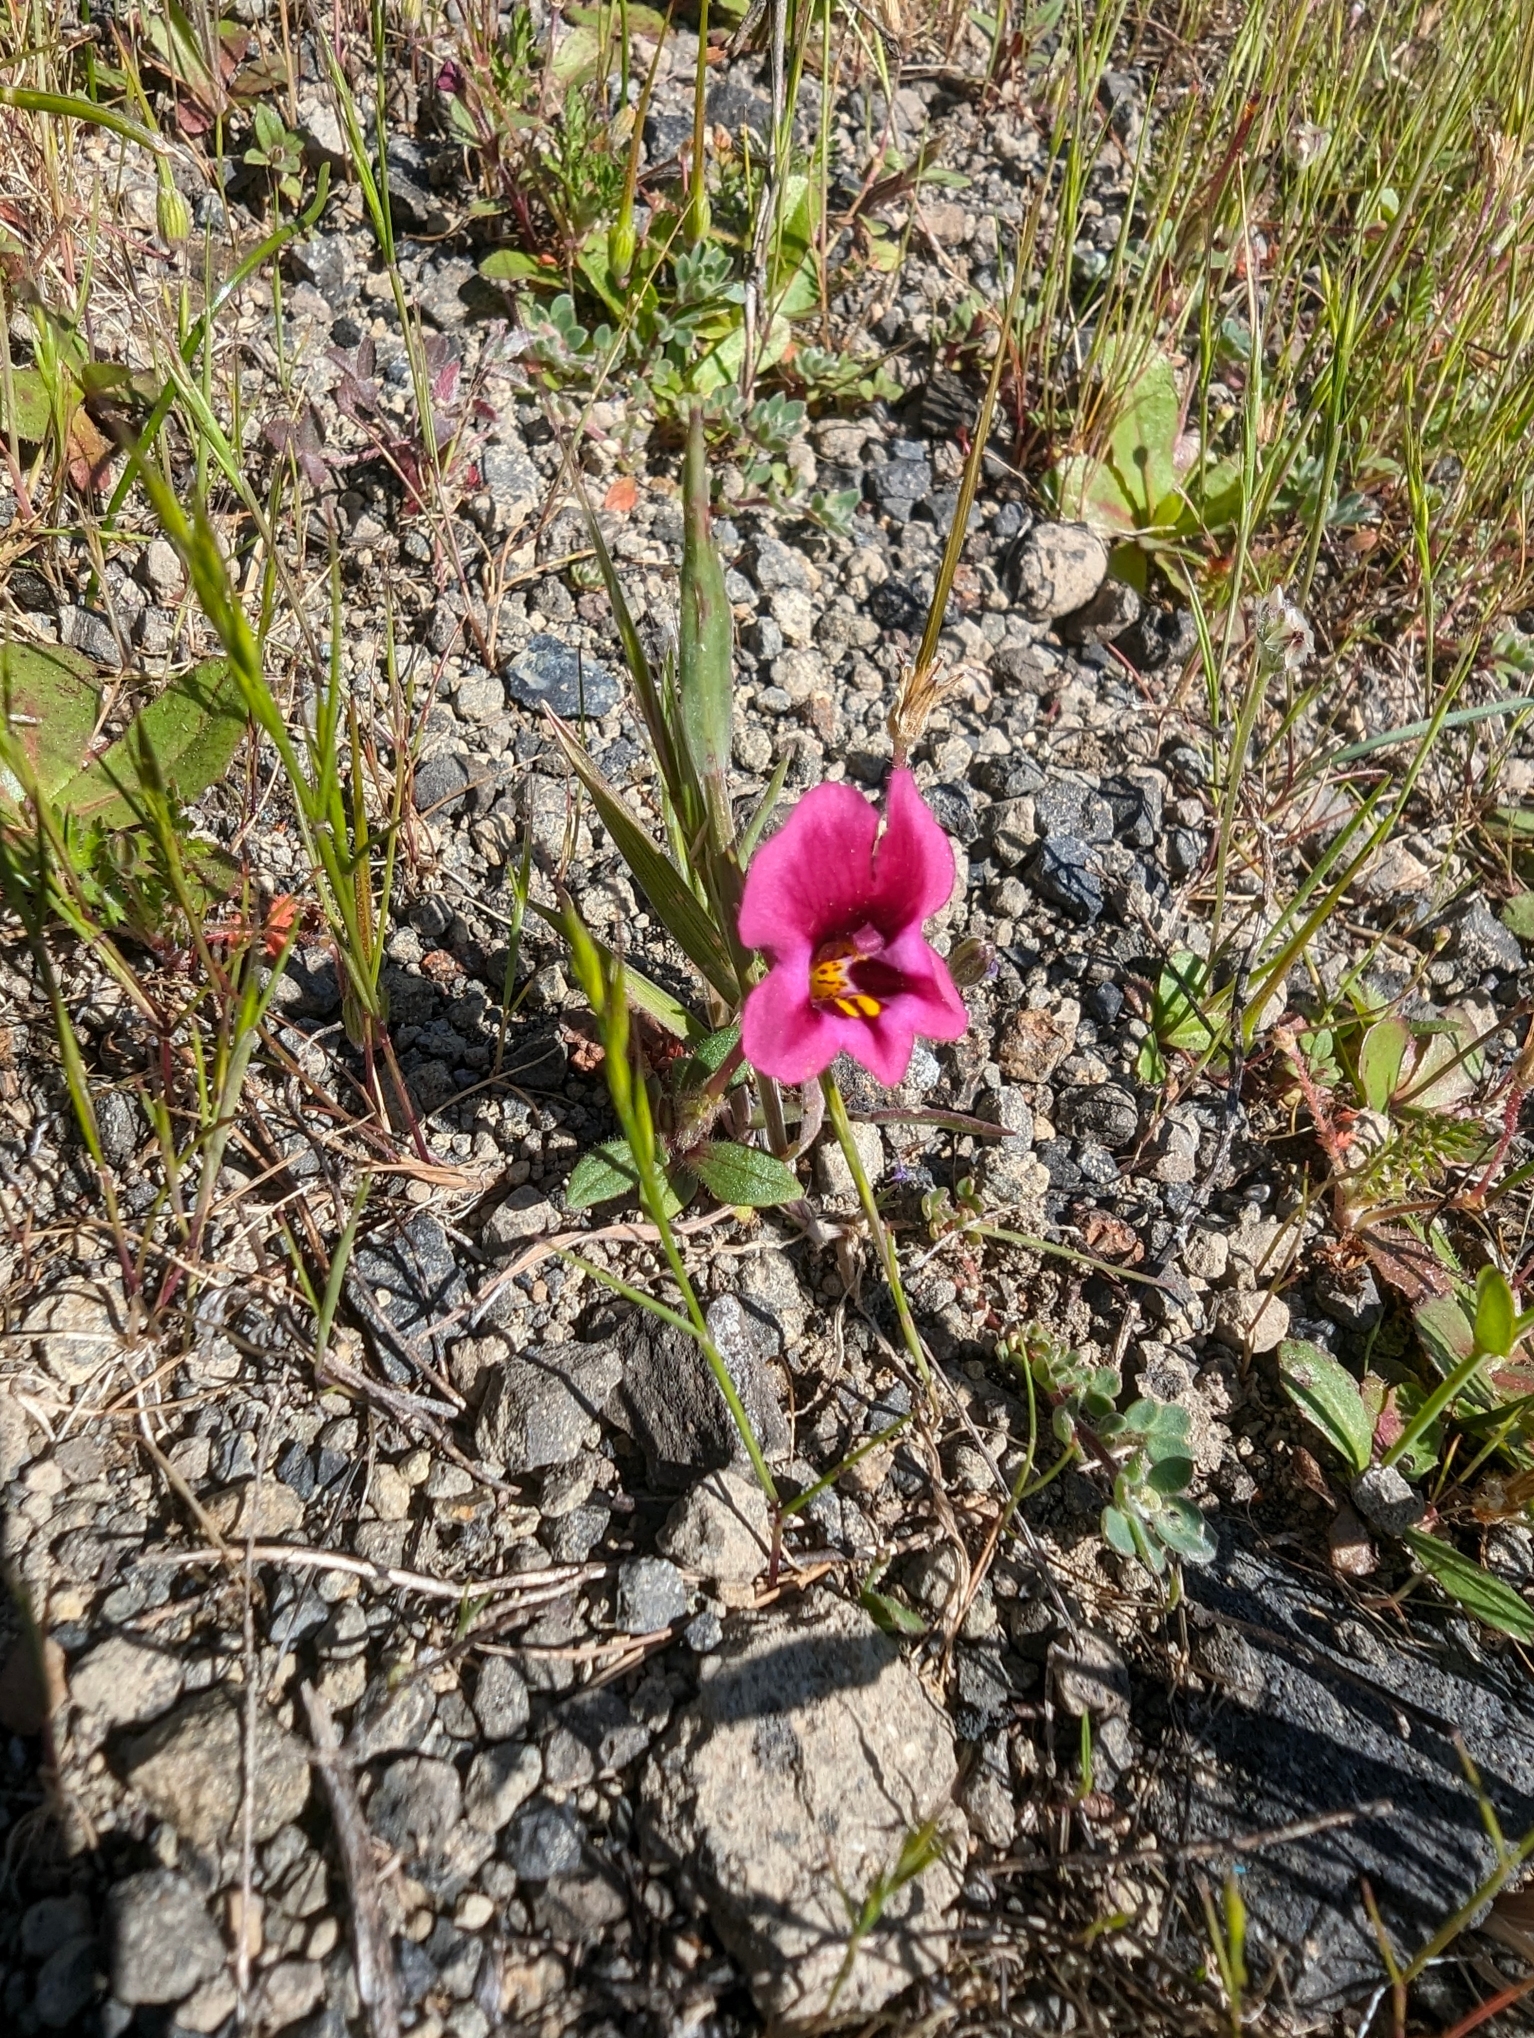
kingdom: Plantae
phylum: Tracheophyta
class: Magnoliopsida
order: Lamiales
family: Phrymaceae
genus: Diplacus
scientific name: Diplacus kelloggii
